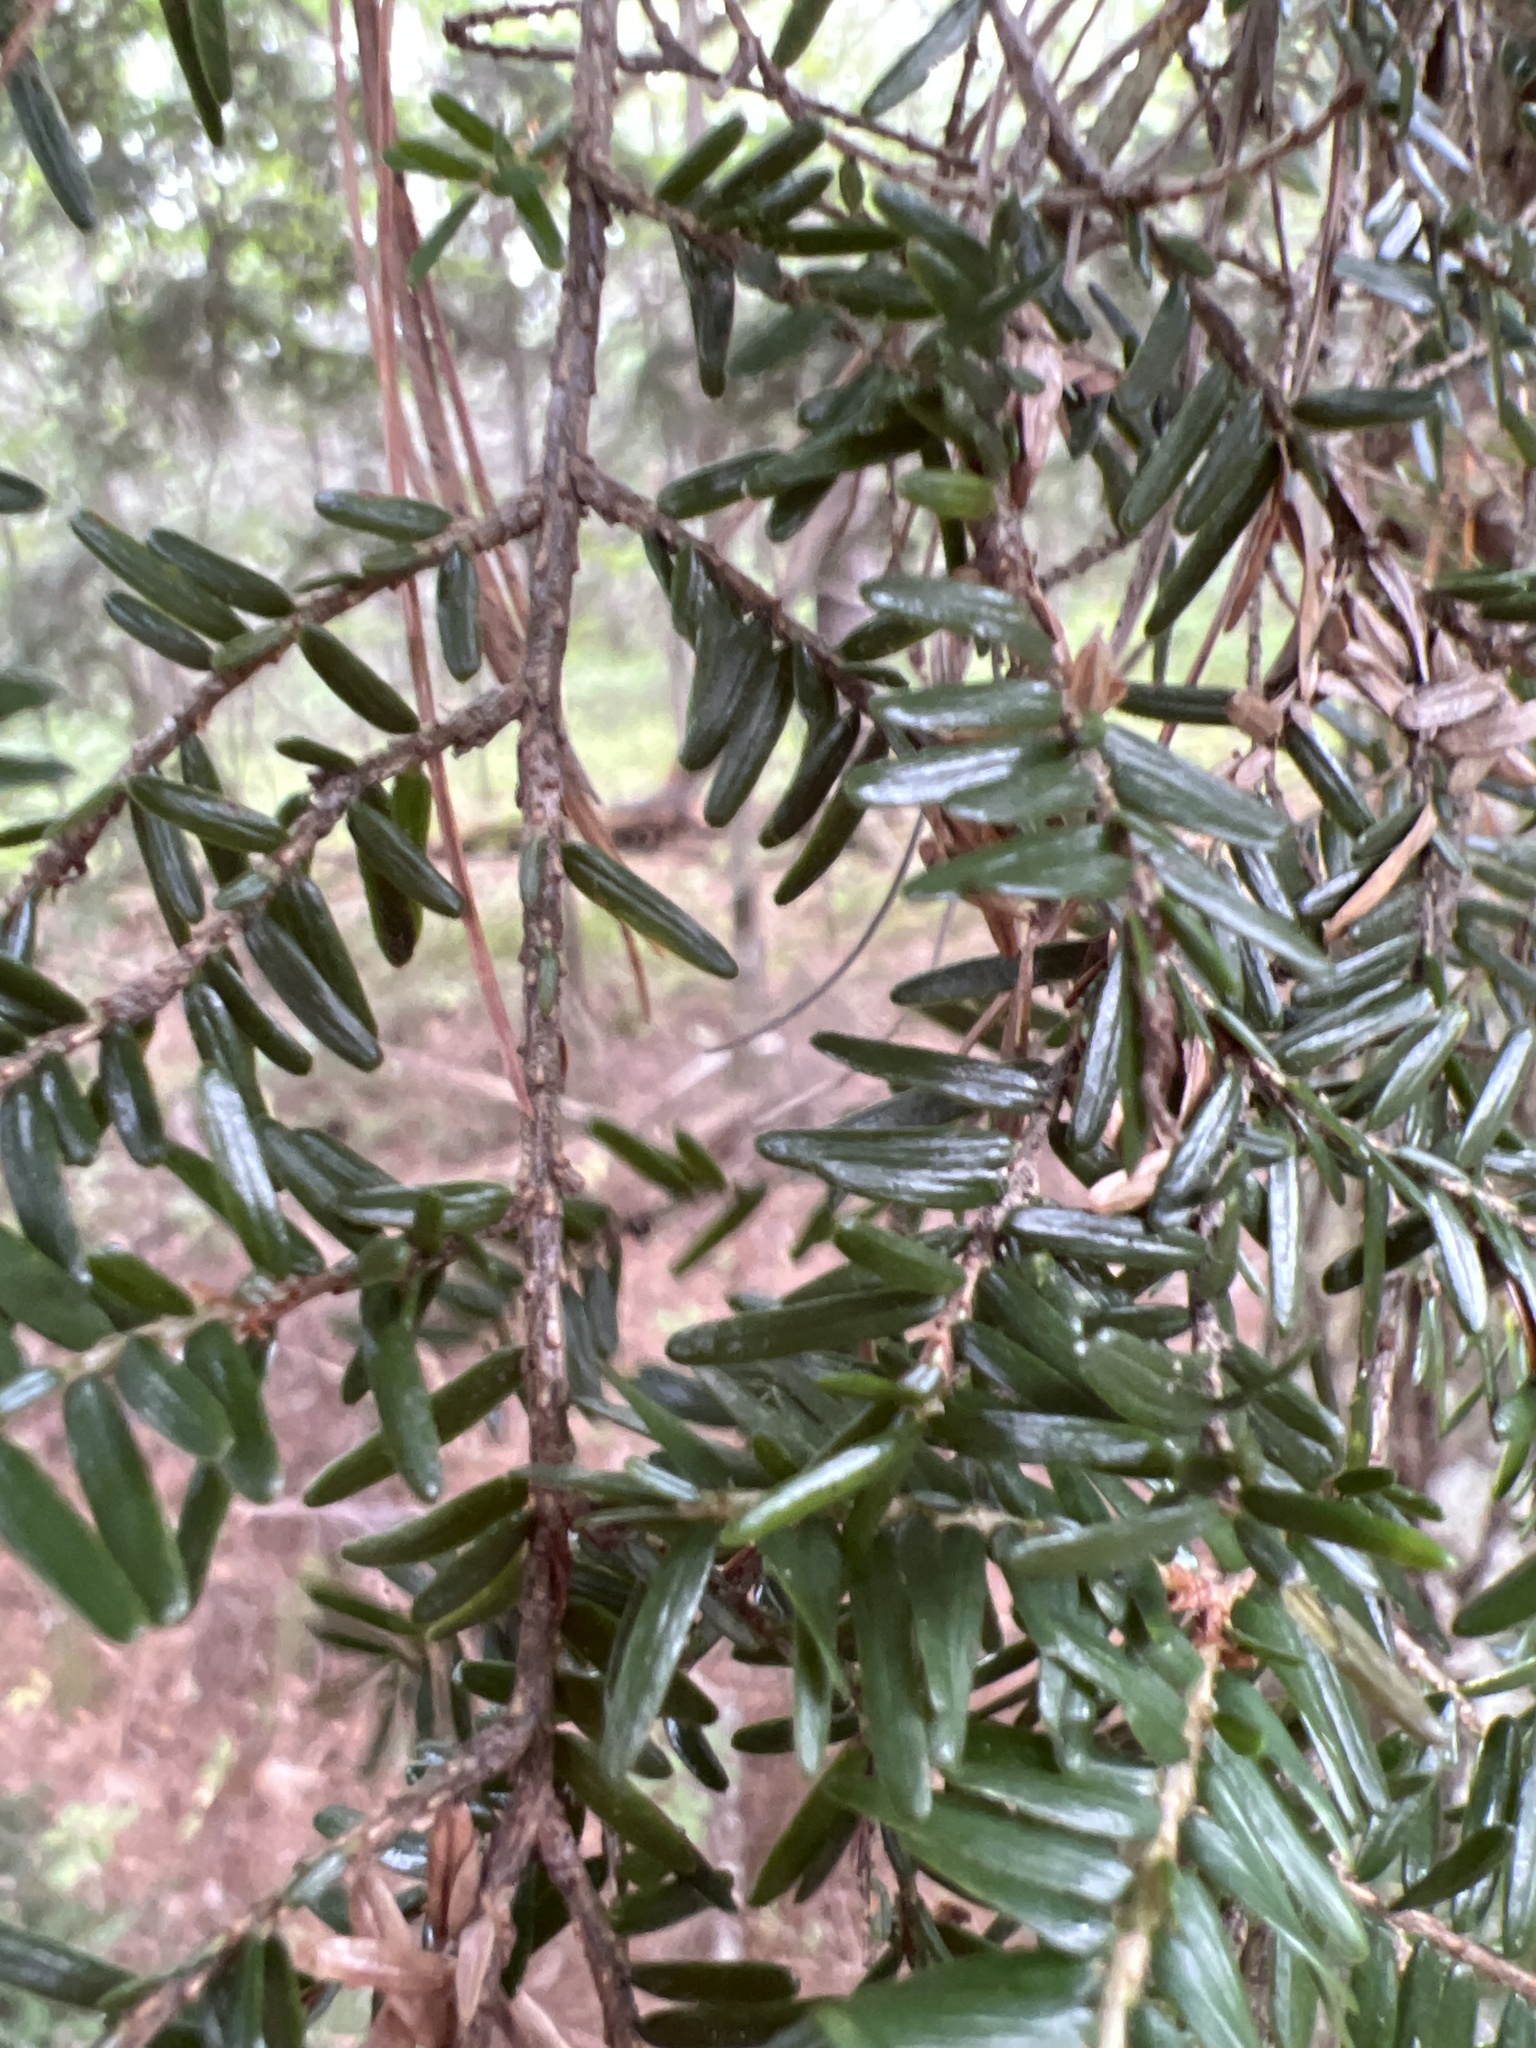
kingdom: Plantae
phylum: Tracheophyta
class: Pinopsida
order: Pinales
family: Pinaceae
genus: Tsuga
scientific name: Tsuga canadensis
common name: Eastern hemlock
